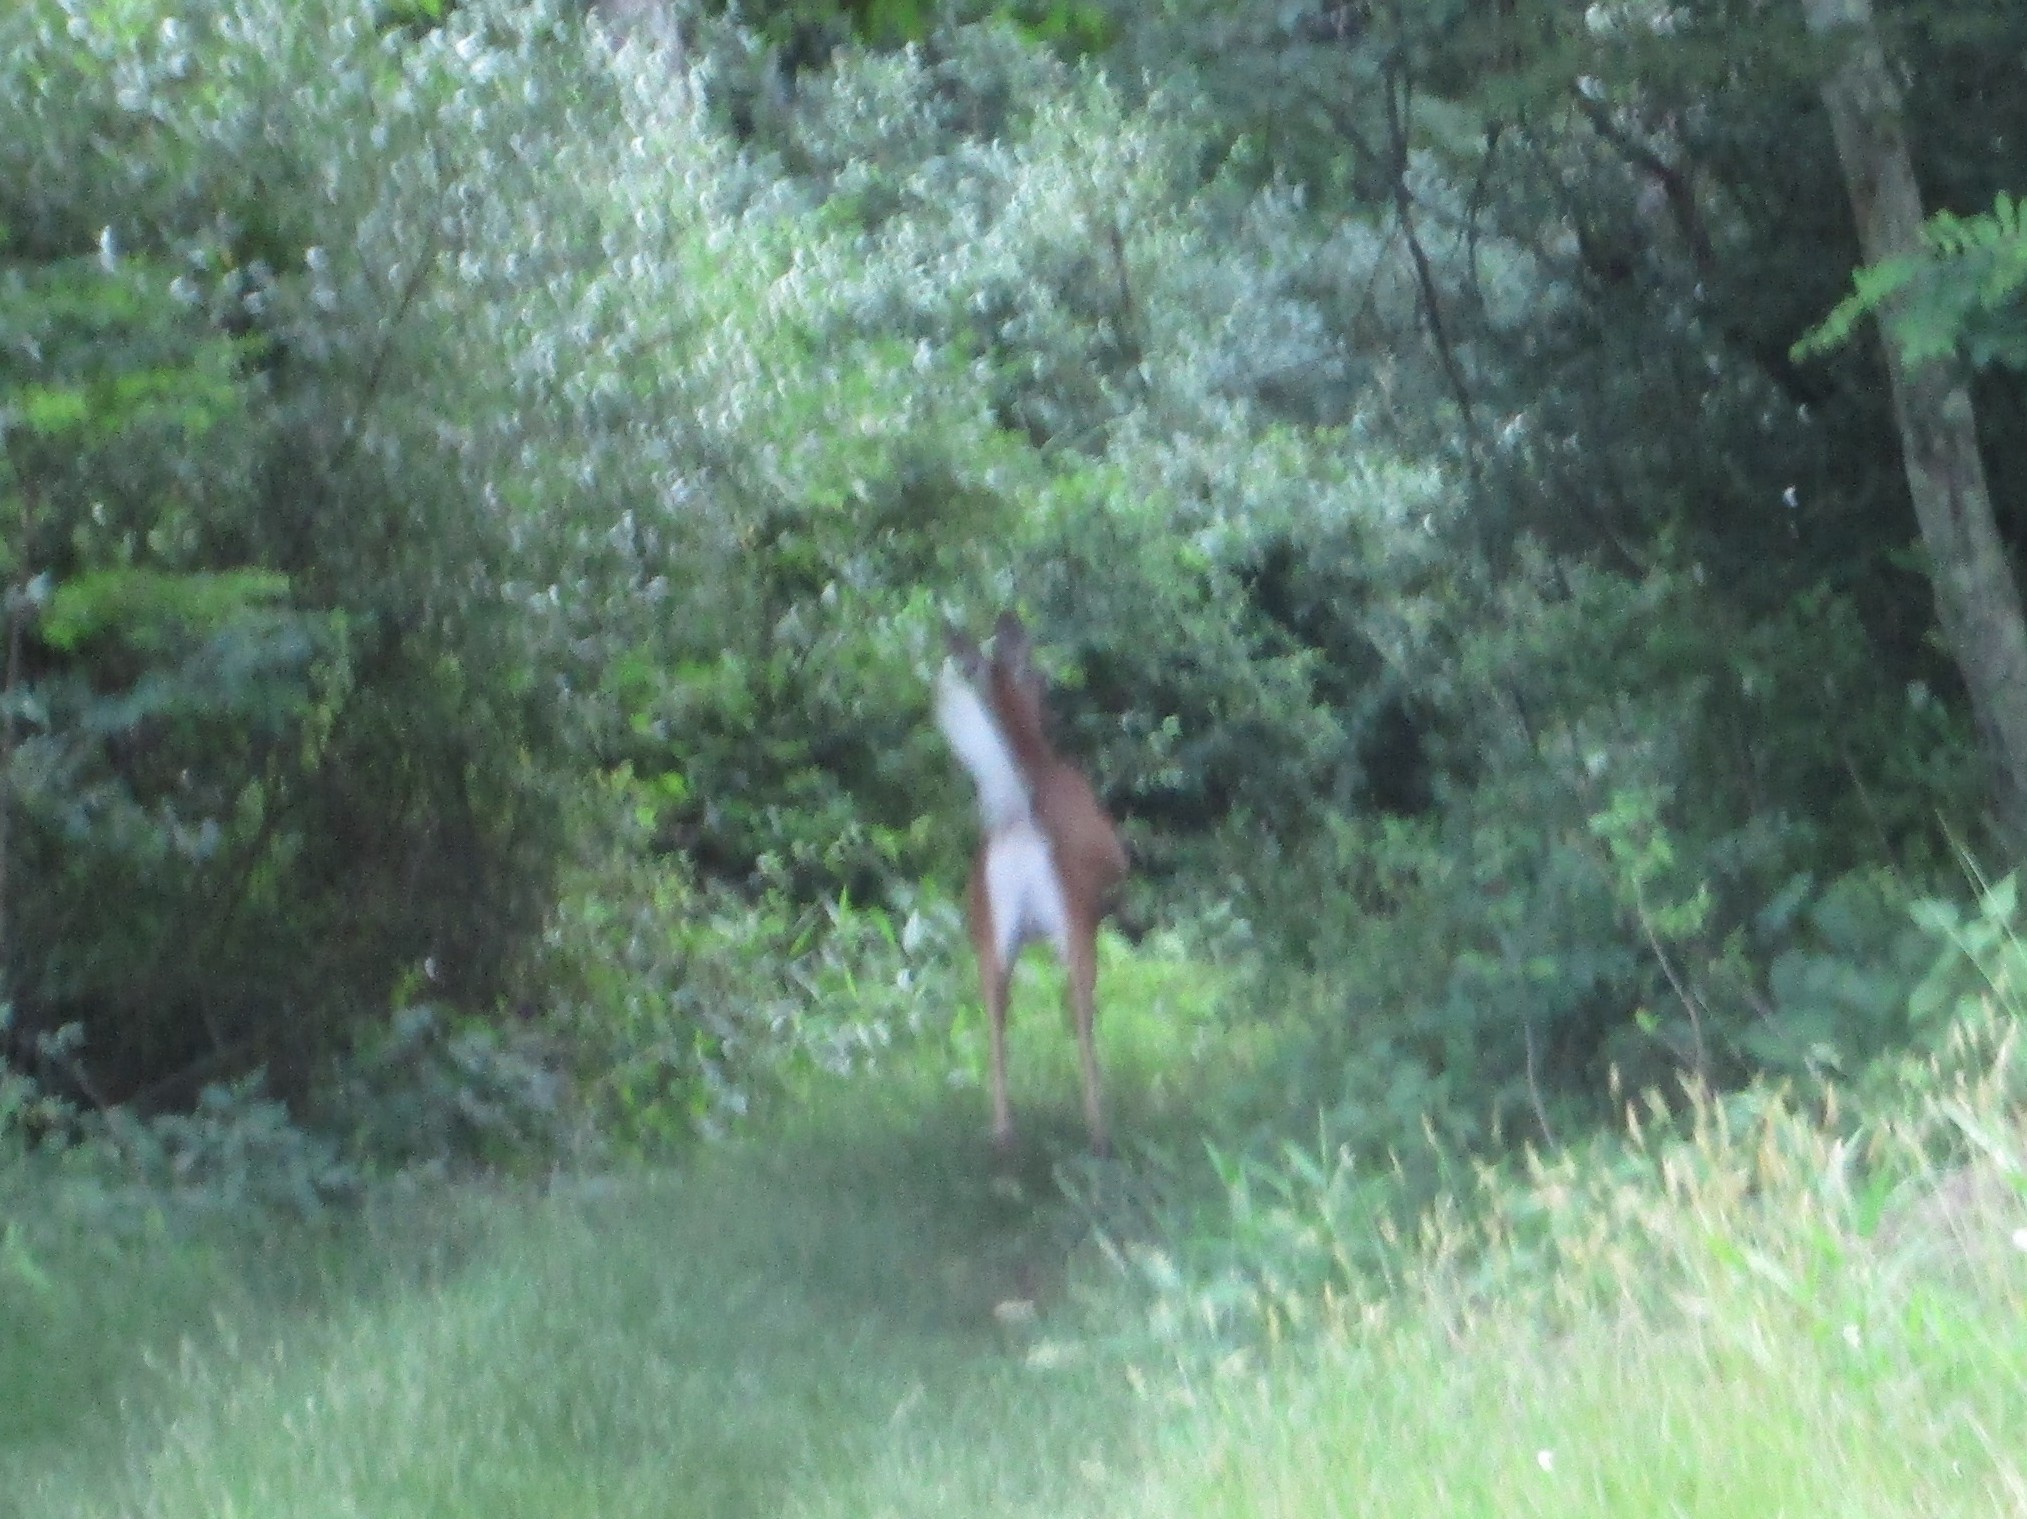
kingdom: Animalia
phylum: Chordata
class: Mammalia
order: Artiodactyla
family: Cervidae
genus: Odocoileus
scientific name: Odocoileus virginianus
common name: White-tailed deer
